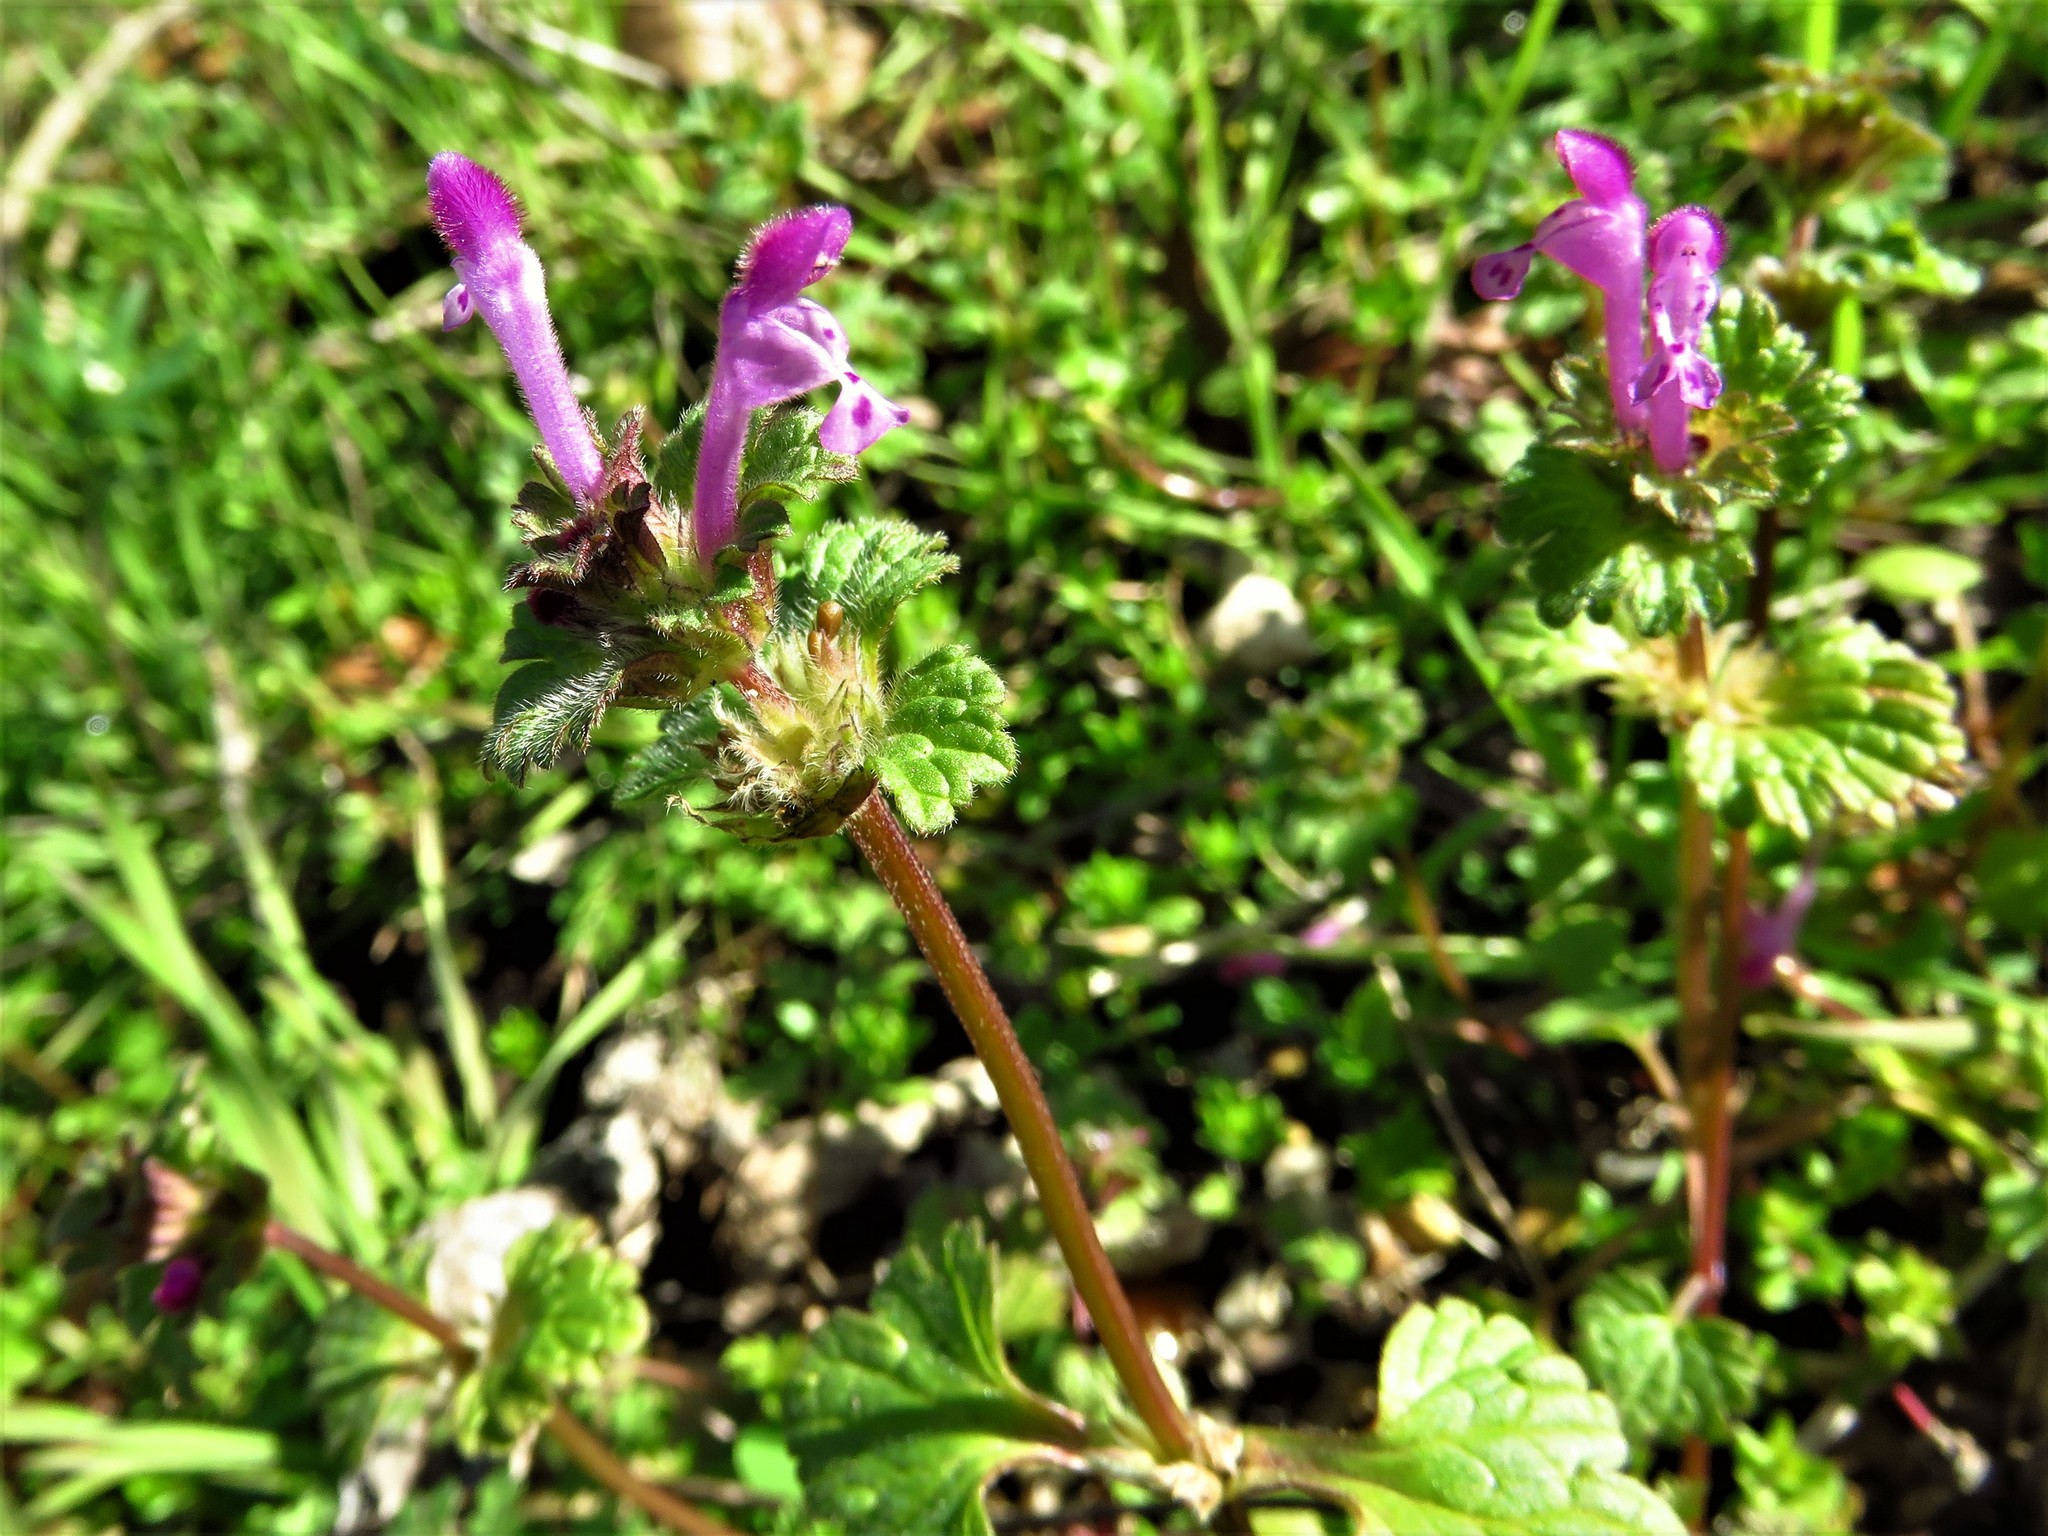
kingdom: Plantae
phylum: Tracheophyta
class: Magnoliopsida
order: Lamiales
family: Lamiaceae
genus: Lamium
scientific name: Lamium amplexicaule
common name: Henbit dead-nettle
